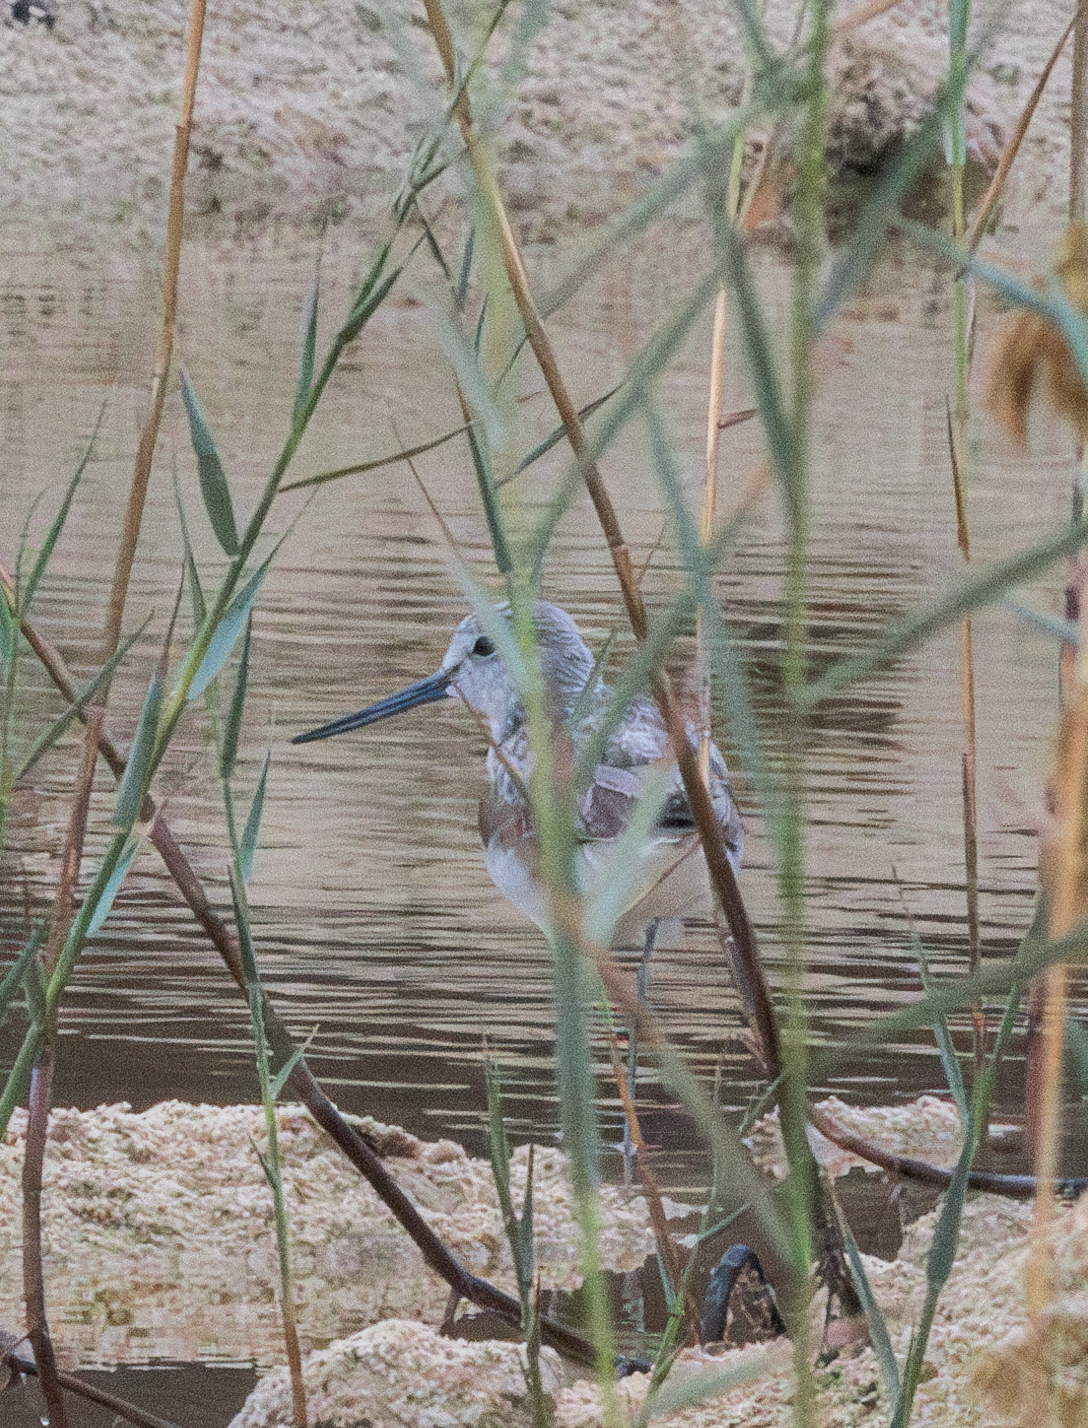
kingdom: Animalia
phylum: Chordata
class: Aves
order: Charadriiformes
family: Scolopacidae
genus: Tringa
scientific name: Tringa nebularia
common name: Common greenshank
